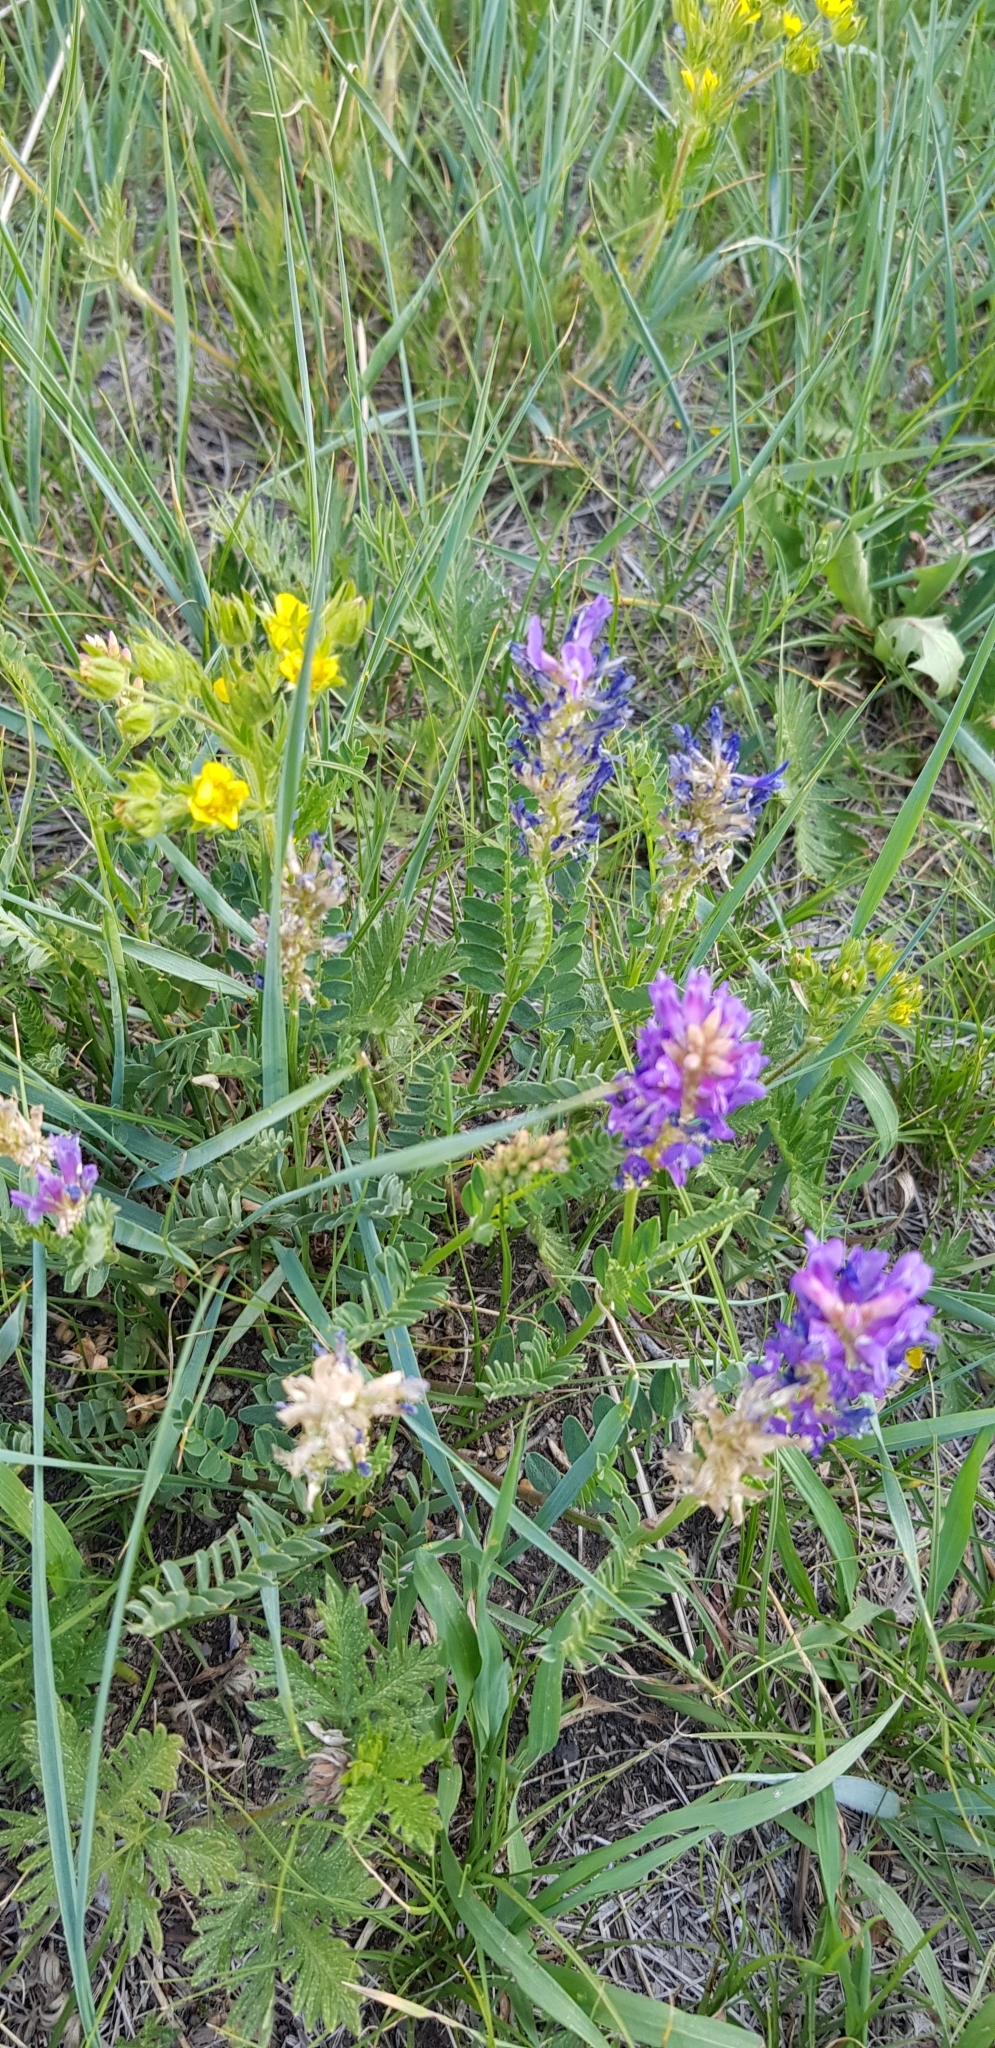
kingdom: Plantae
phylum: Tracheophyta
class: Magnoliopsida
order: Fabales
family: Fabaceae
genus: Astragalus
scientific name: Astragalus danicus
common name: Purple milk-vetch
